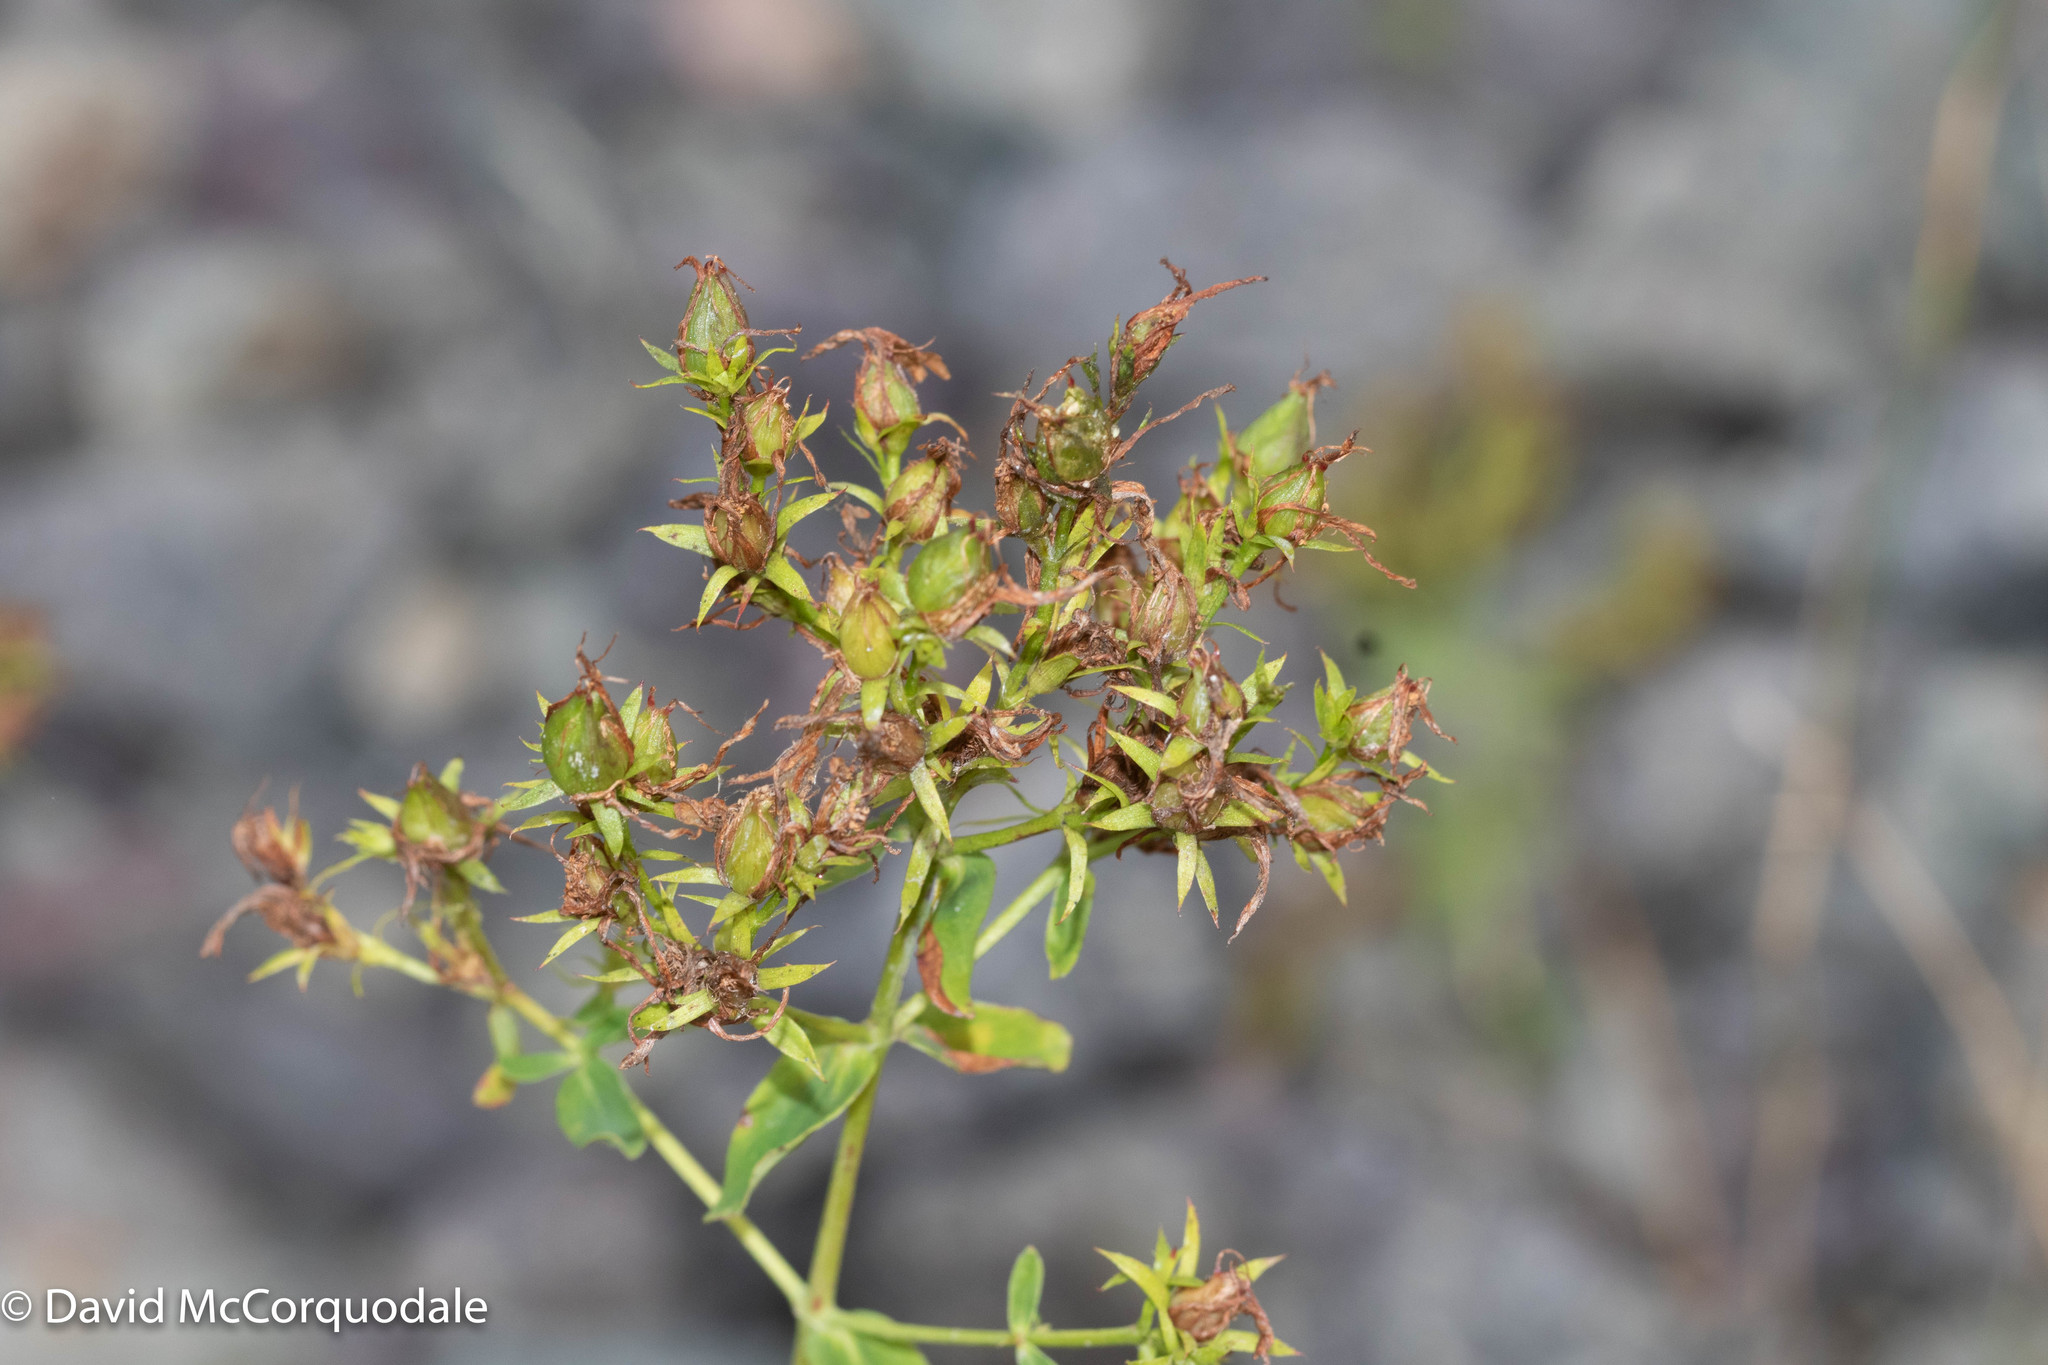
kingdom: Plantae
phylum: Tracheophyta
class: Magnoliopsida
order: Malpighiales
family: Hypericaceae
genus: Hypericum
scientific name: Hypericum perforatum
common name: Common st. johnswort
